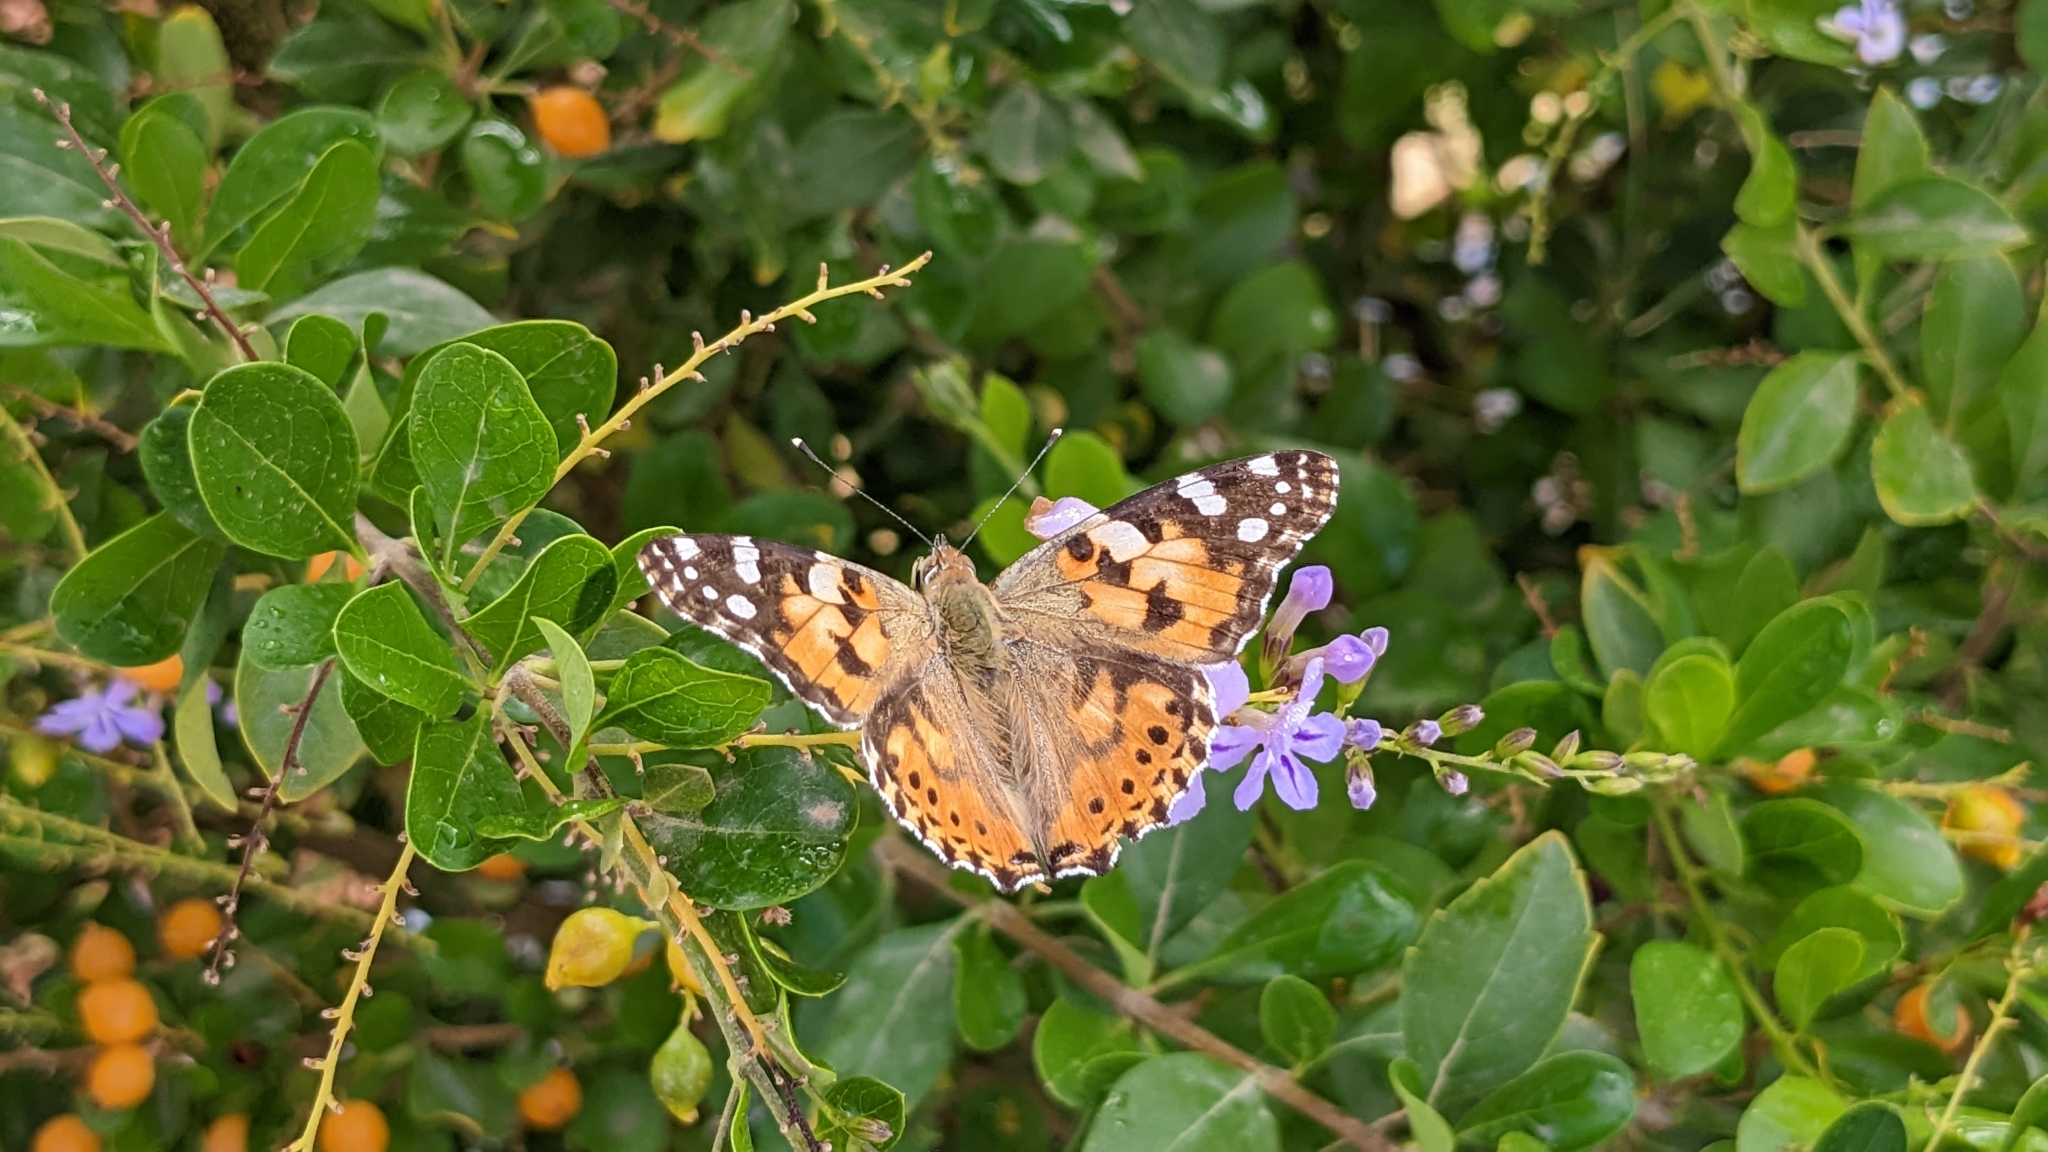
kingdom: Animalia
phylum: Arthropoda
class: Insecta
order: Lepidoptera
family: Nymphalidae
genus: Vanessa
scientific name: Vanessa cardui
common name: Painted lady
